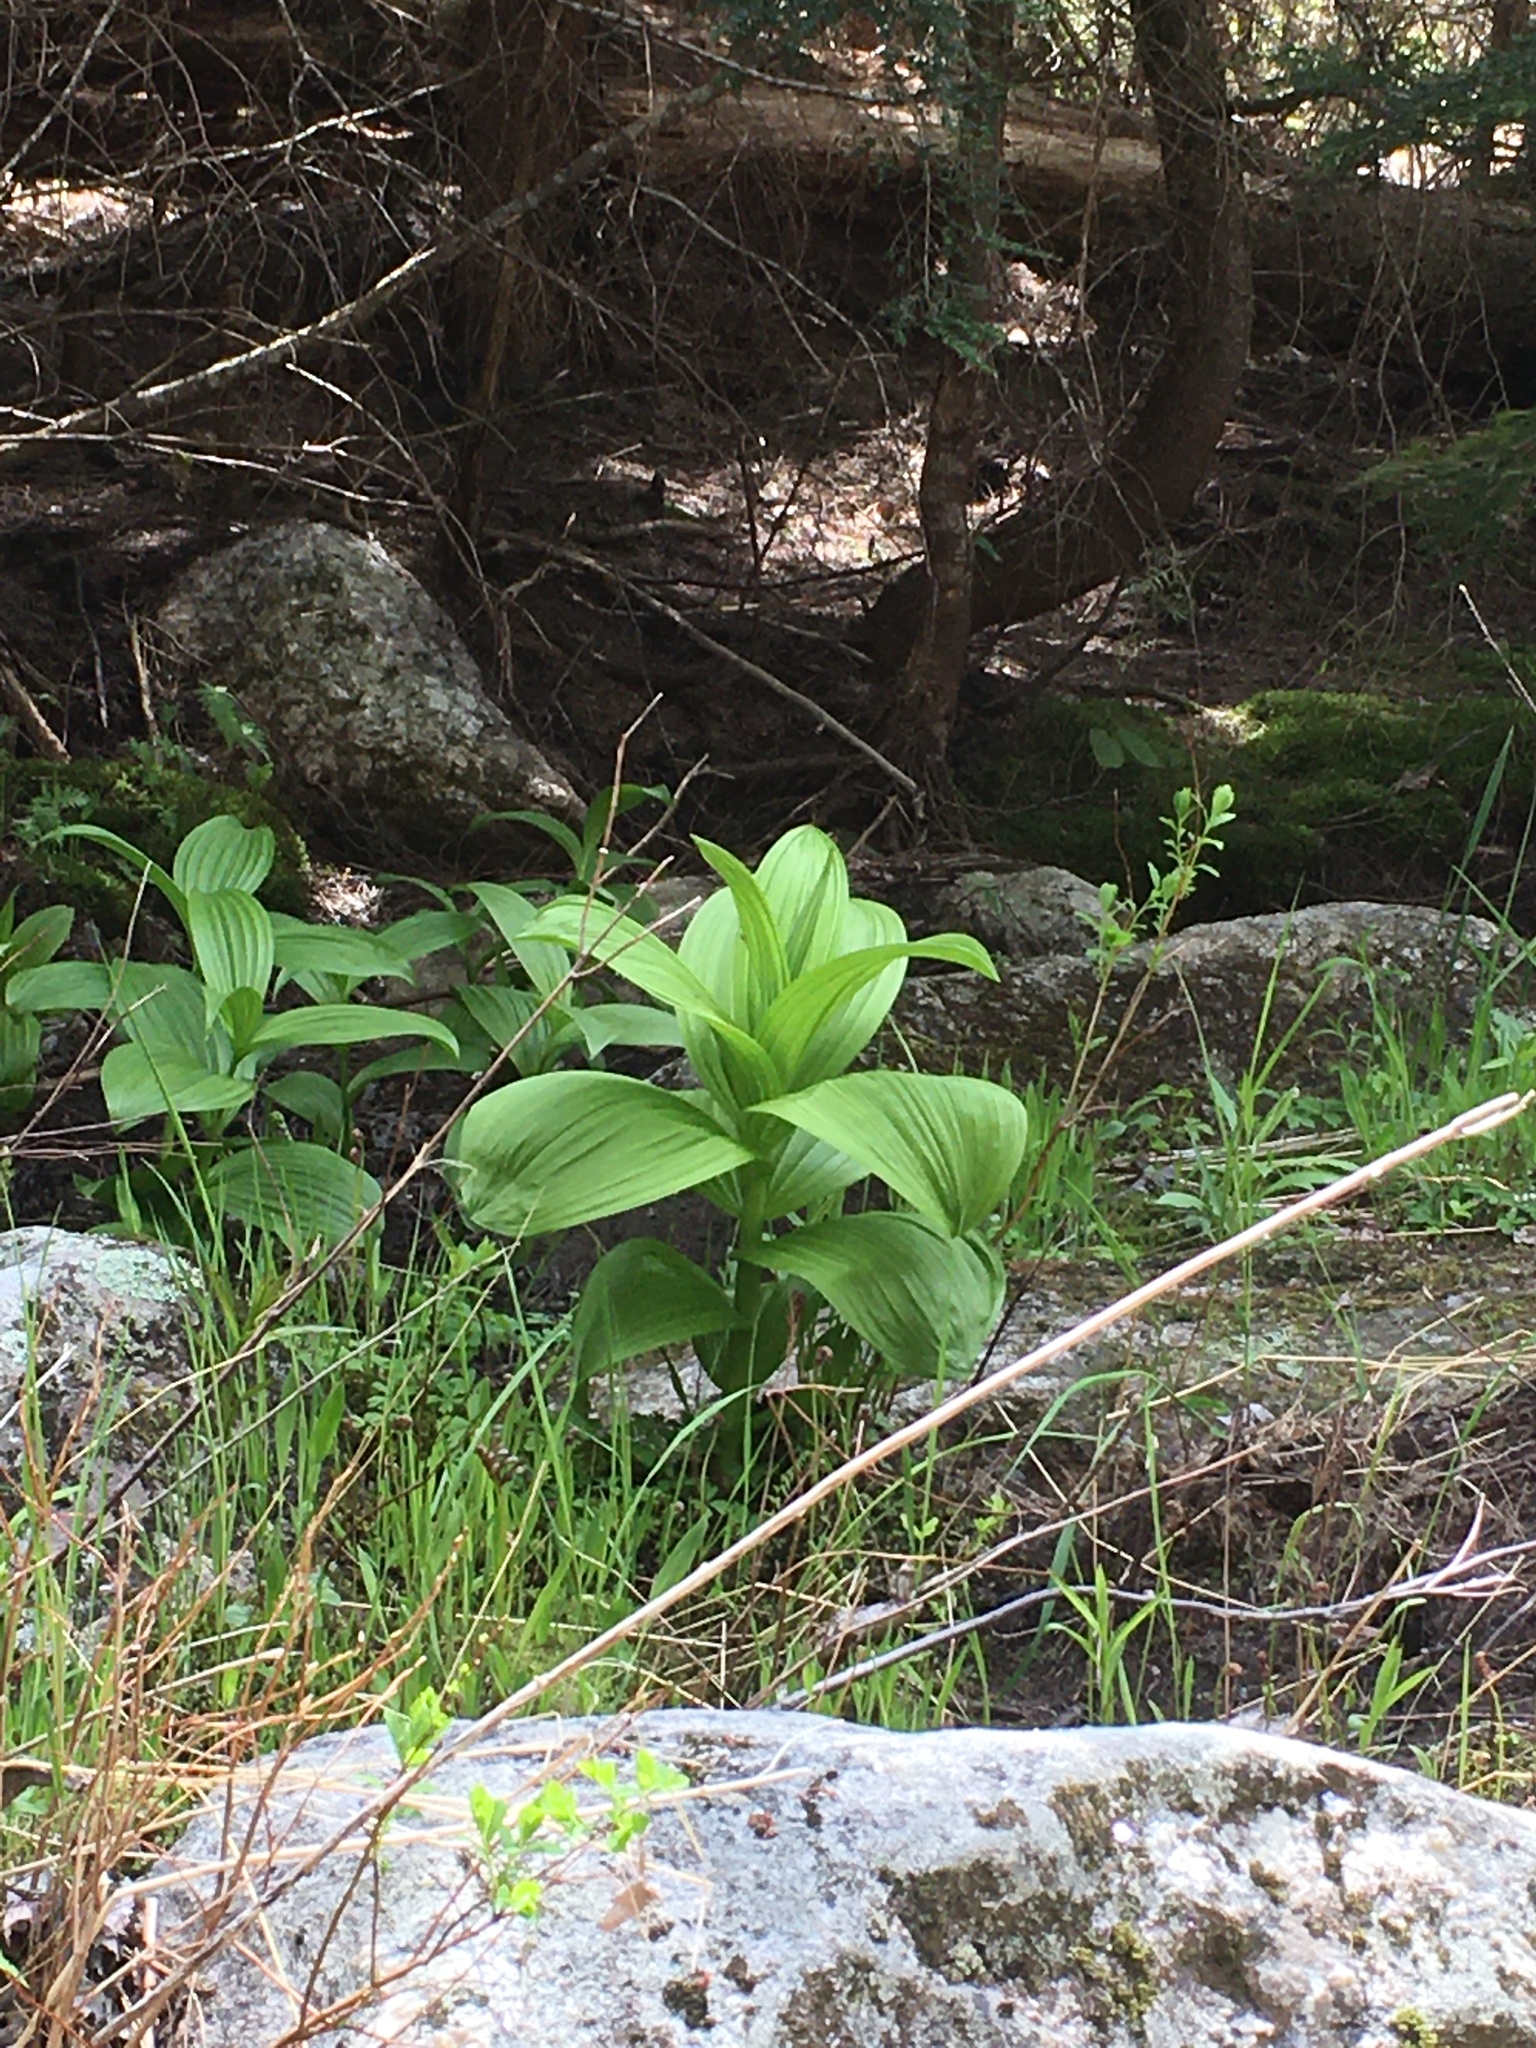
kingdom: Plantae
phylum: Tracheophyta
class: Liliopsida
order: Liliales
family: Melanthiaceae
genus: Veratrum
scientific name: Veratrum viride
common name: American false hellebore
